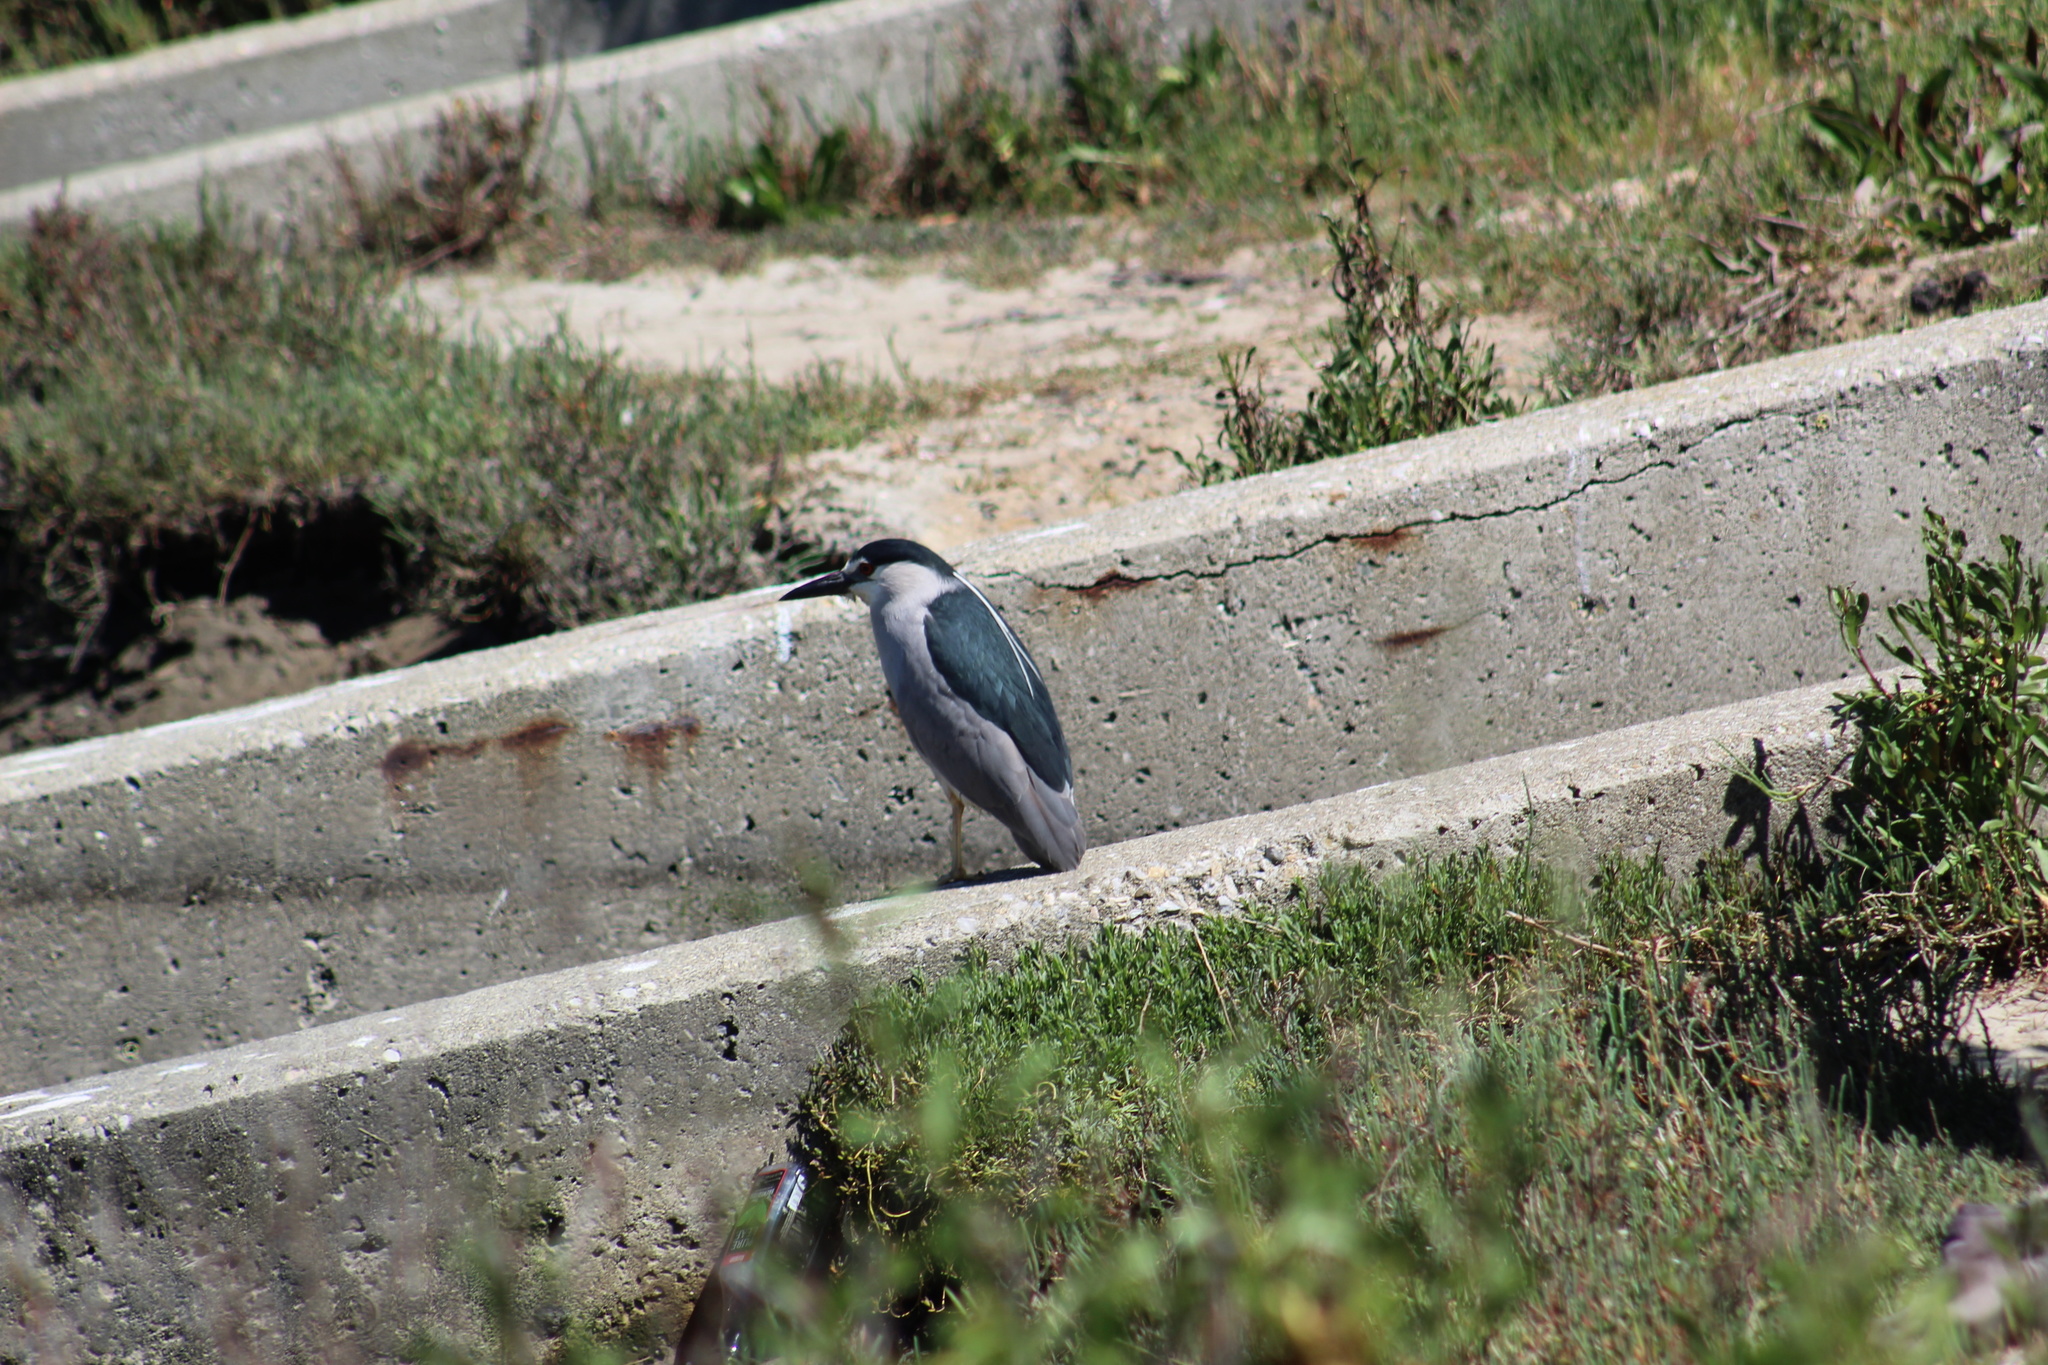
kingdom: Animalia
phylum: Chordata
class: Aves
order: Pelecaniformes
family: Ardeidae
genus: Nycticorax
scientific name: Nycticorax nycticorax
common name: Black-crowned night heron
